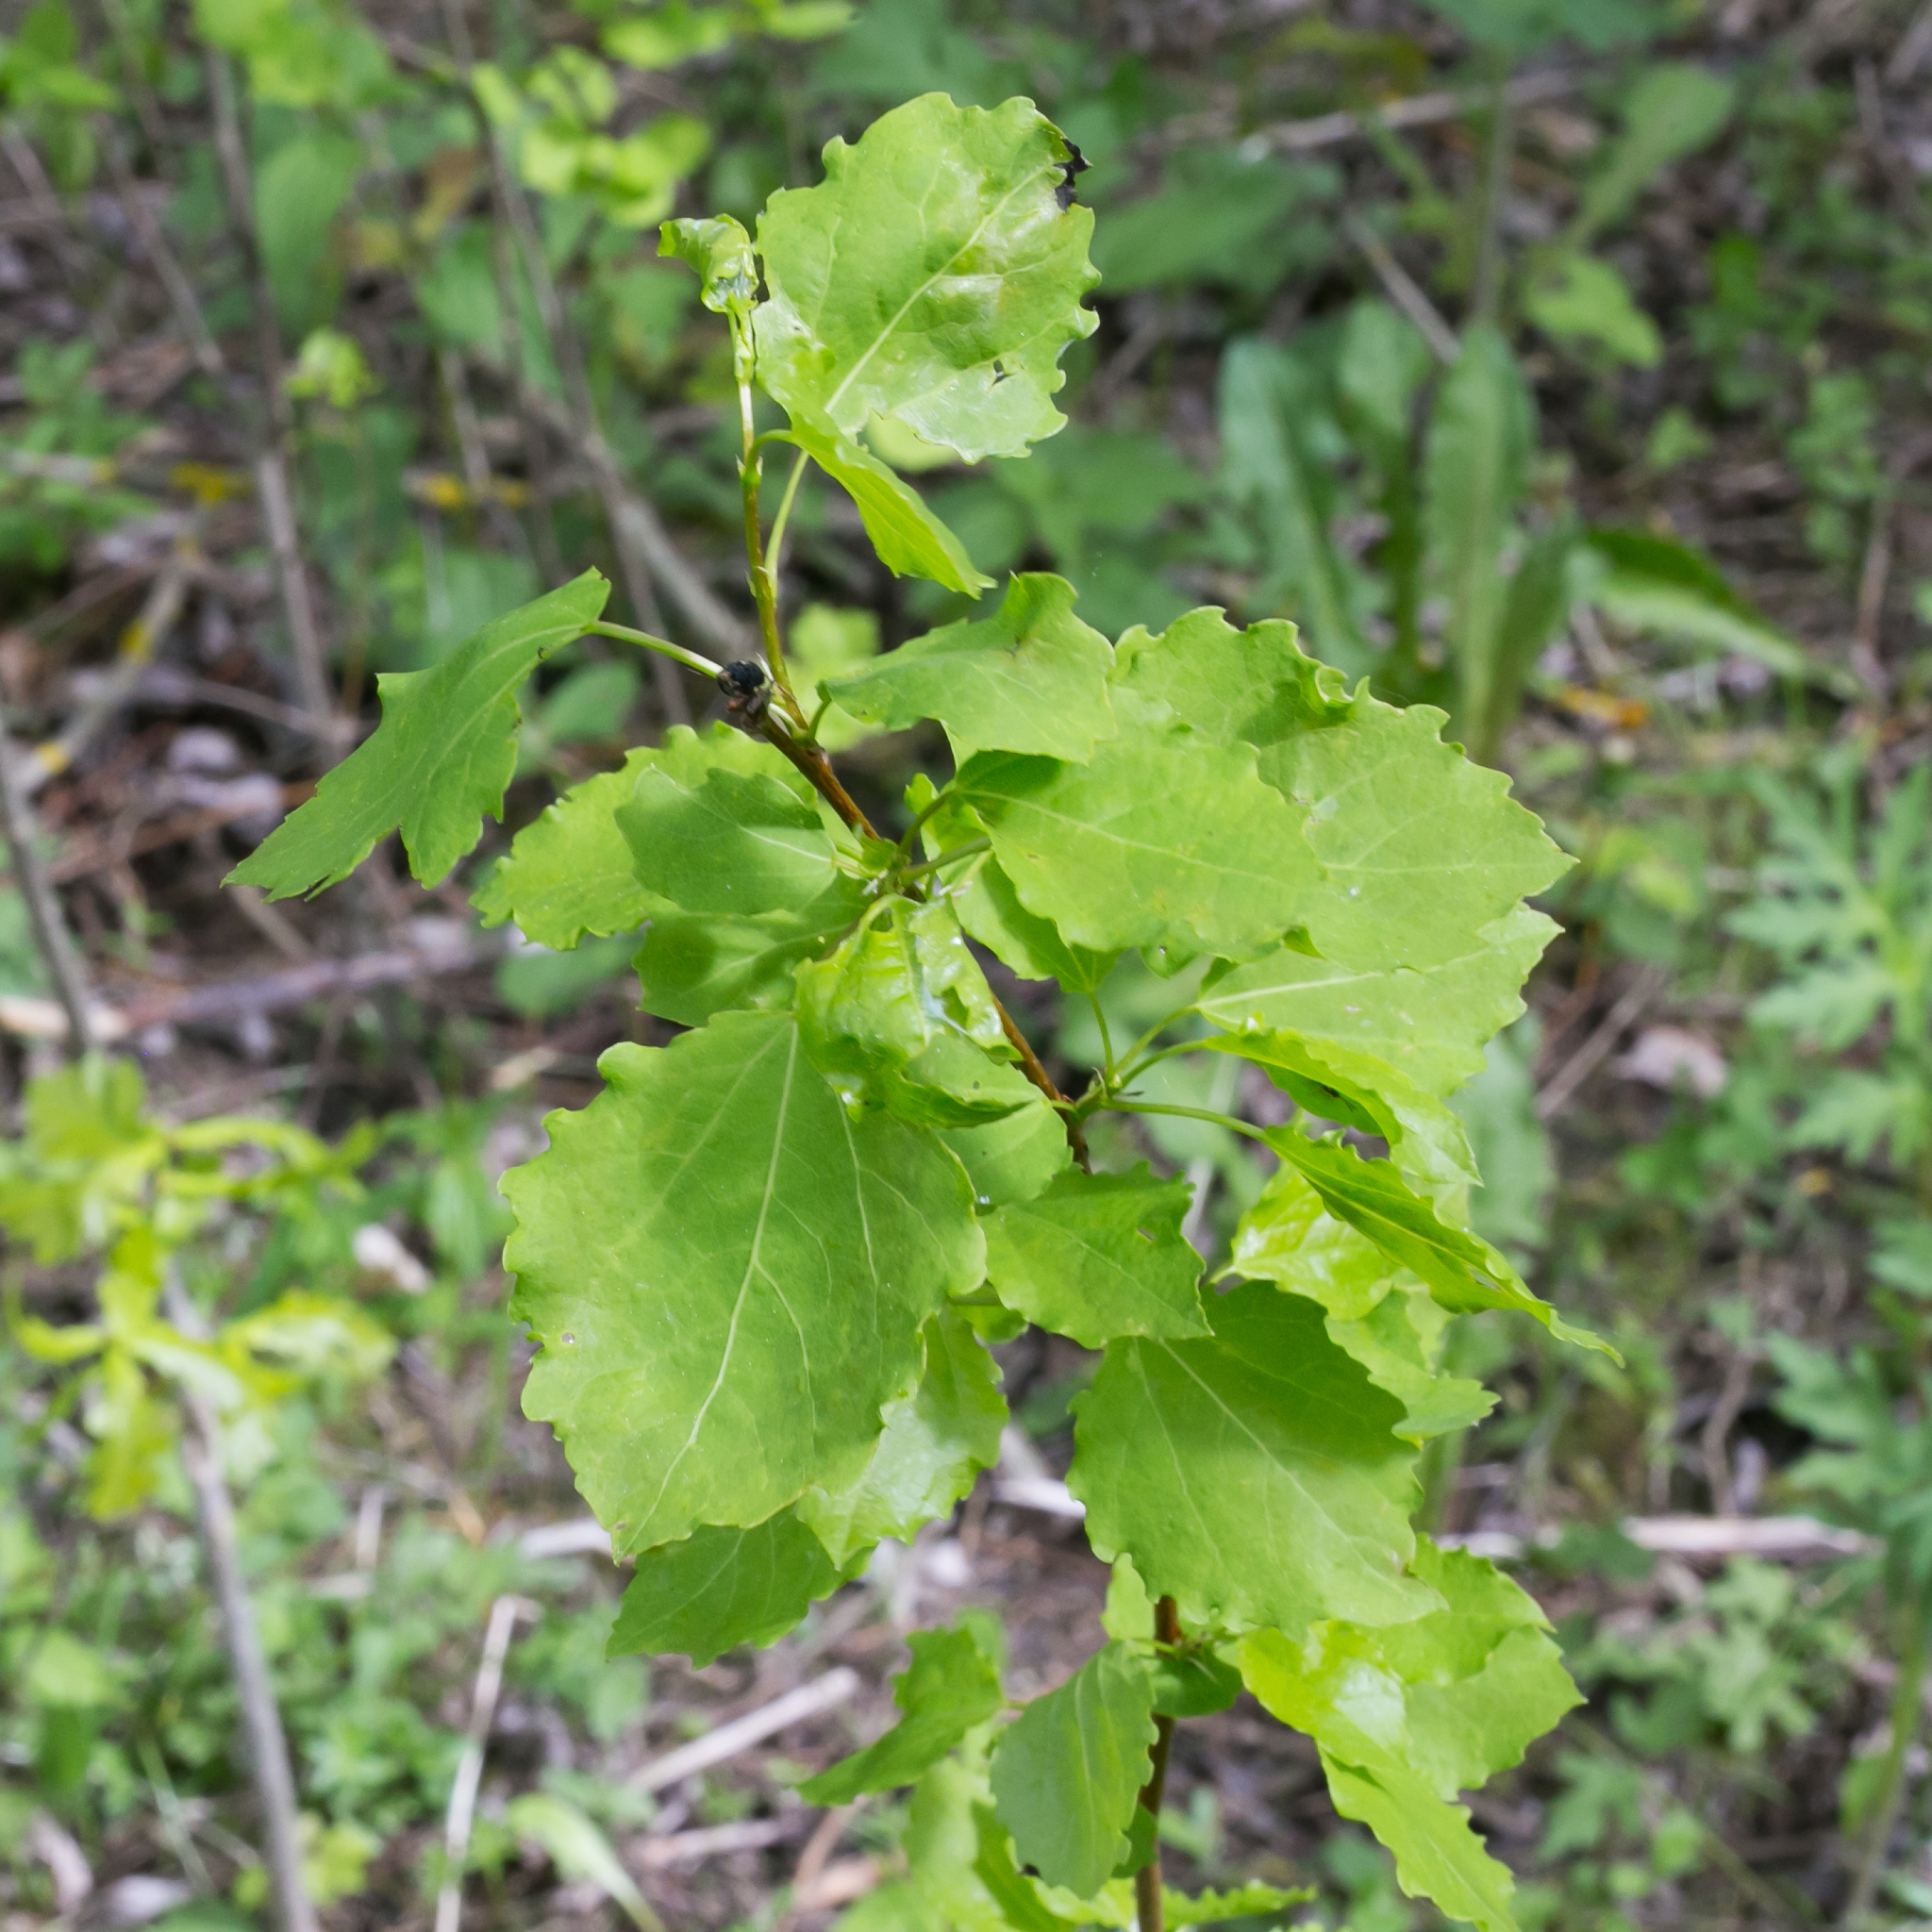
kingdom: Plantae
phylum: Tracheophyta
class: Magnoliopsida
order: Malpighiales
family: Salicaceae
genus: Populus
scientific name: Populus tremula
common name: European aspen
